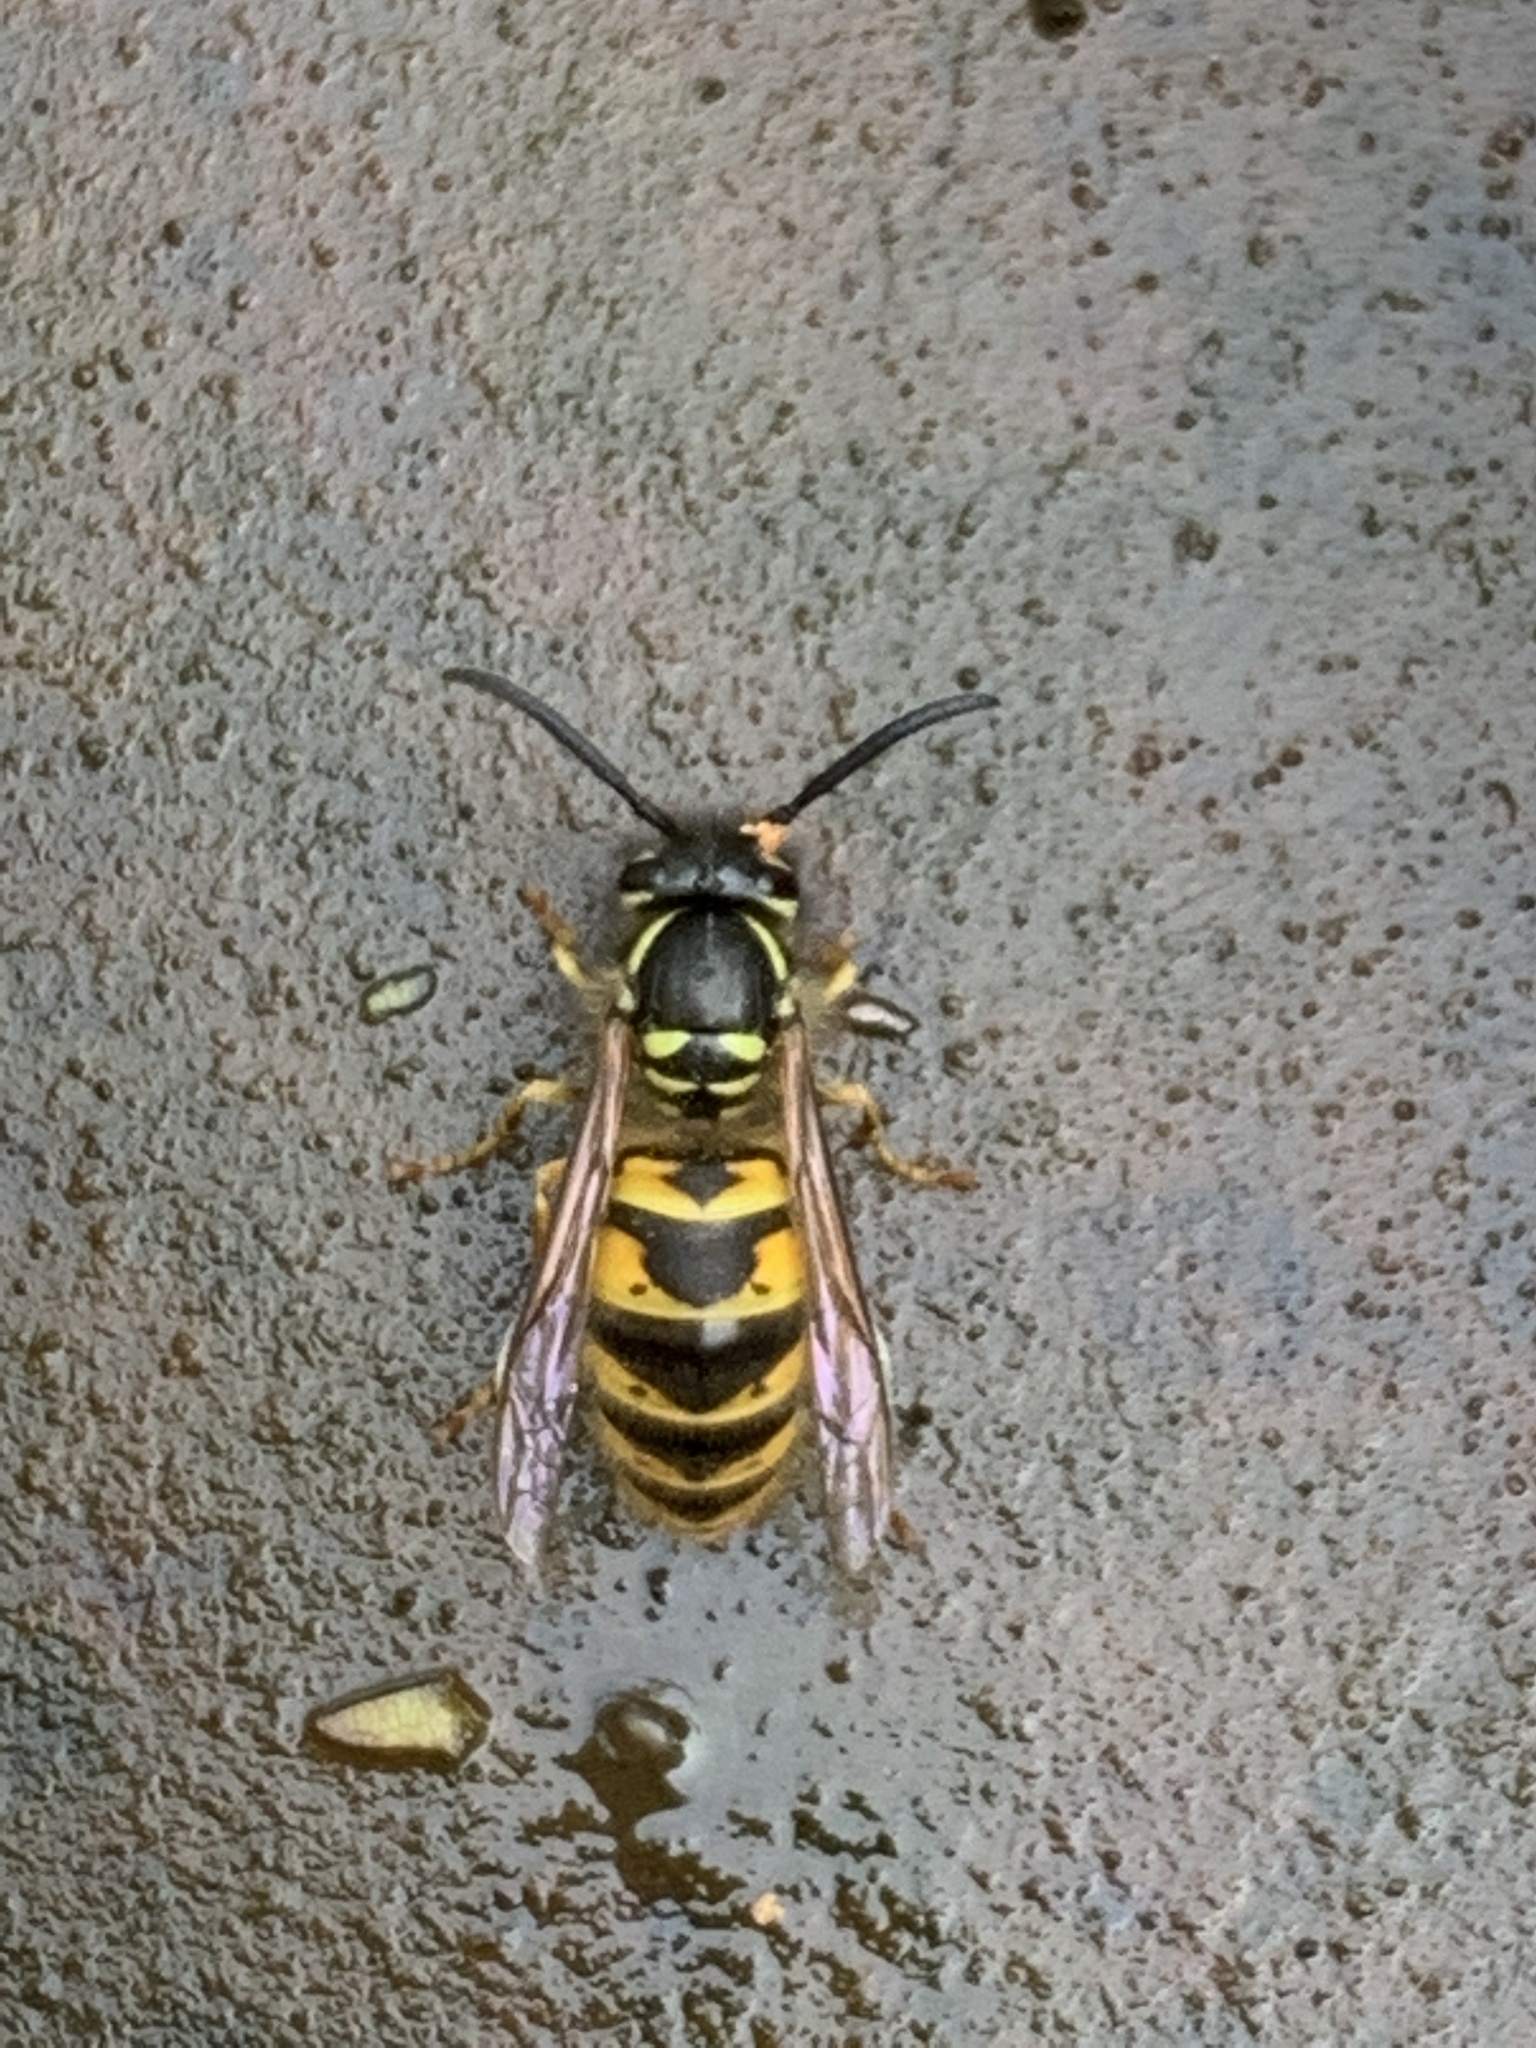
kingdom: Animalia
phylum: Arthropoda
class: Insecta
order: Hymenoptera
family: Vespidae
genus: Vespula
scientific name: Vespula vulgaris
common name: Common wasp
